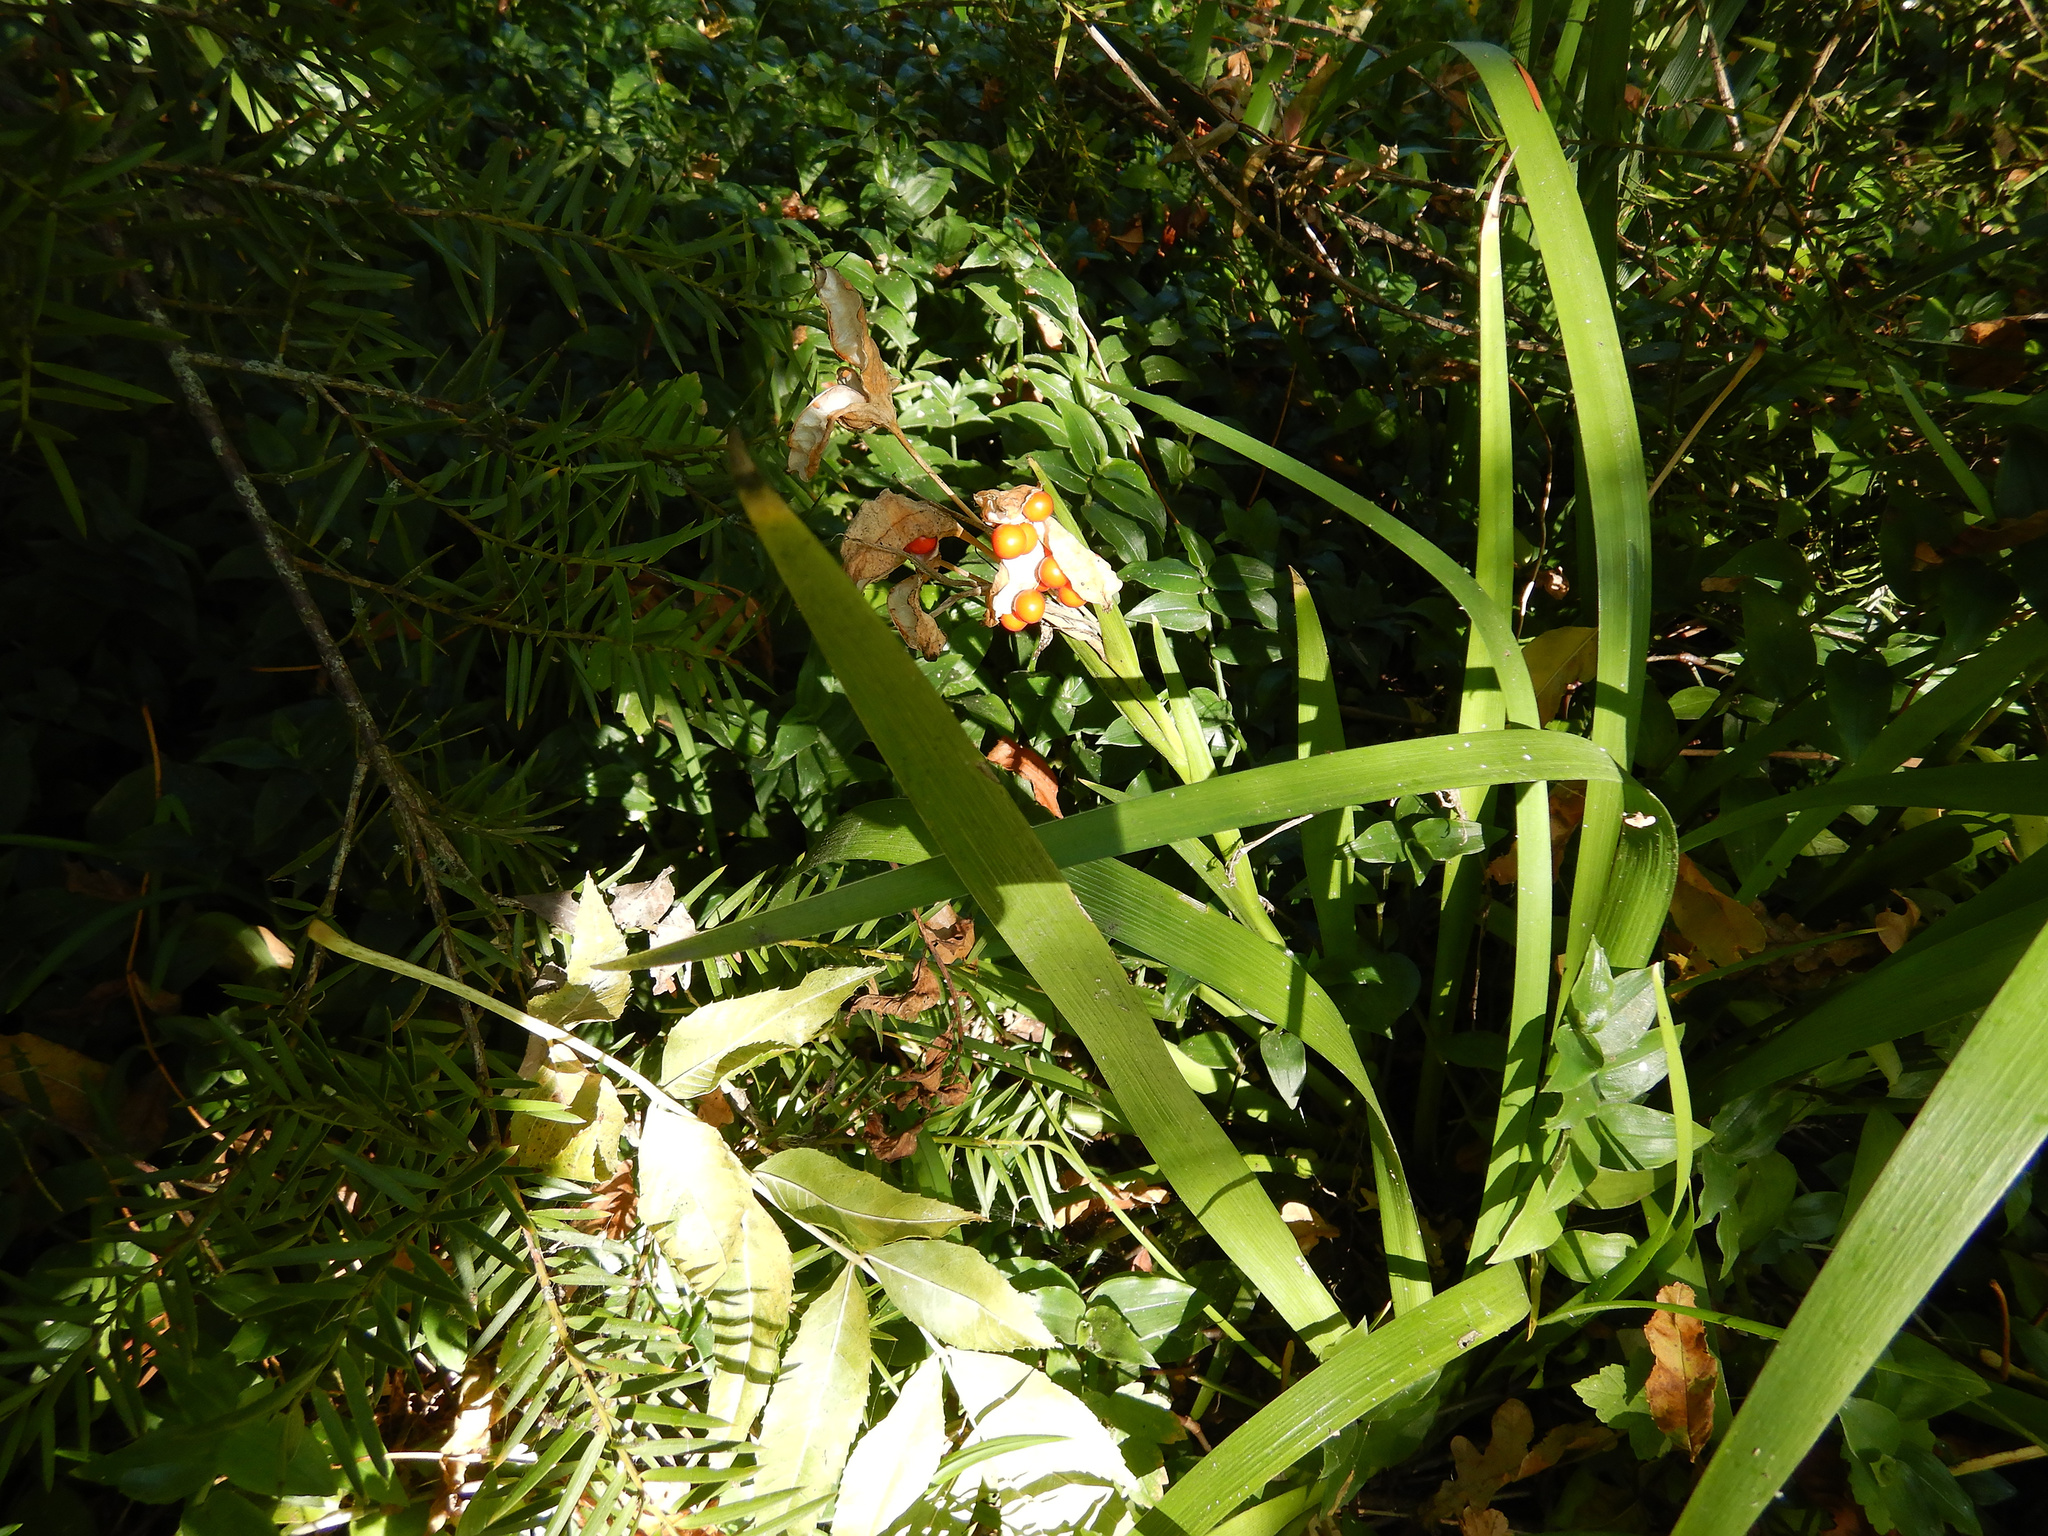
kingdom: Plantae
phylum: Tracheophyta
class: Liliopsida
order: Asparagales
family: Iridaceae
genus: Iris
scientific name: Iris foetidissima
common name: Stinking iris
